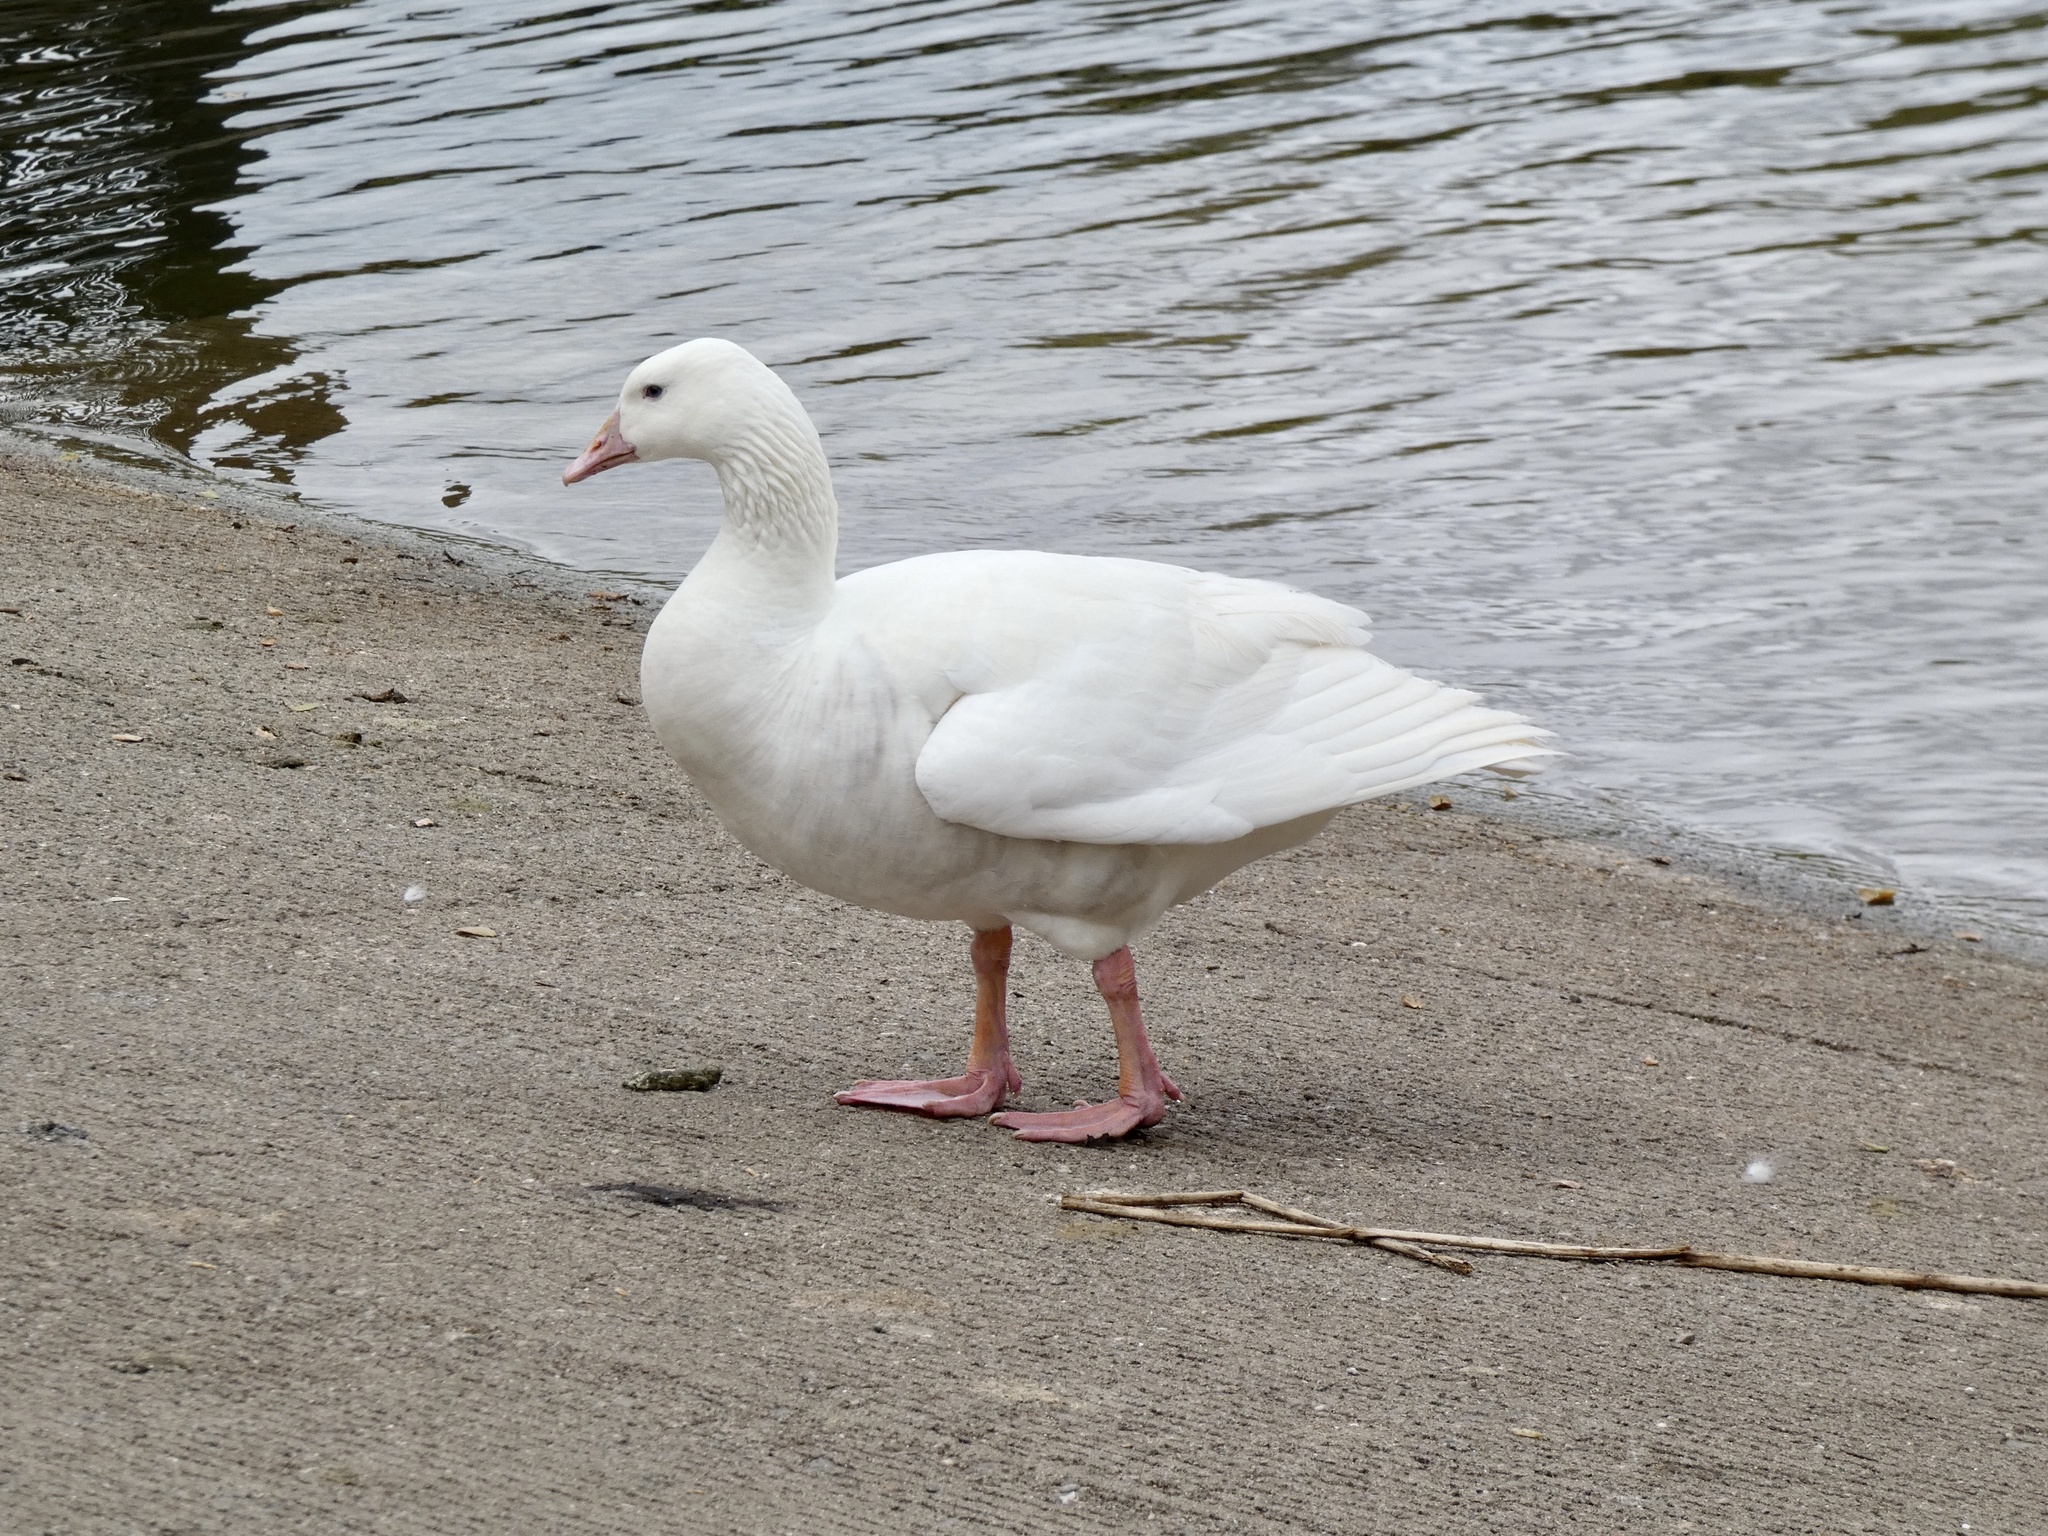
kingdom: Animalia
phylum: Chordata
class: Aves
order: Anseriformes
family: Anatidae
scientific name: Anatidae
